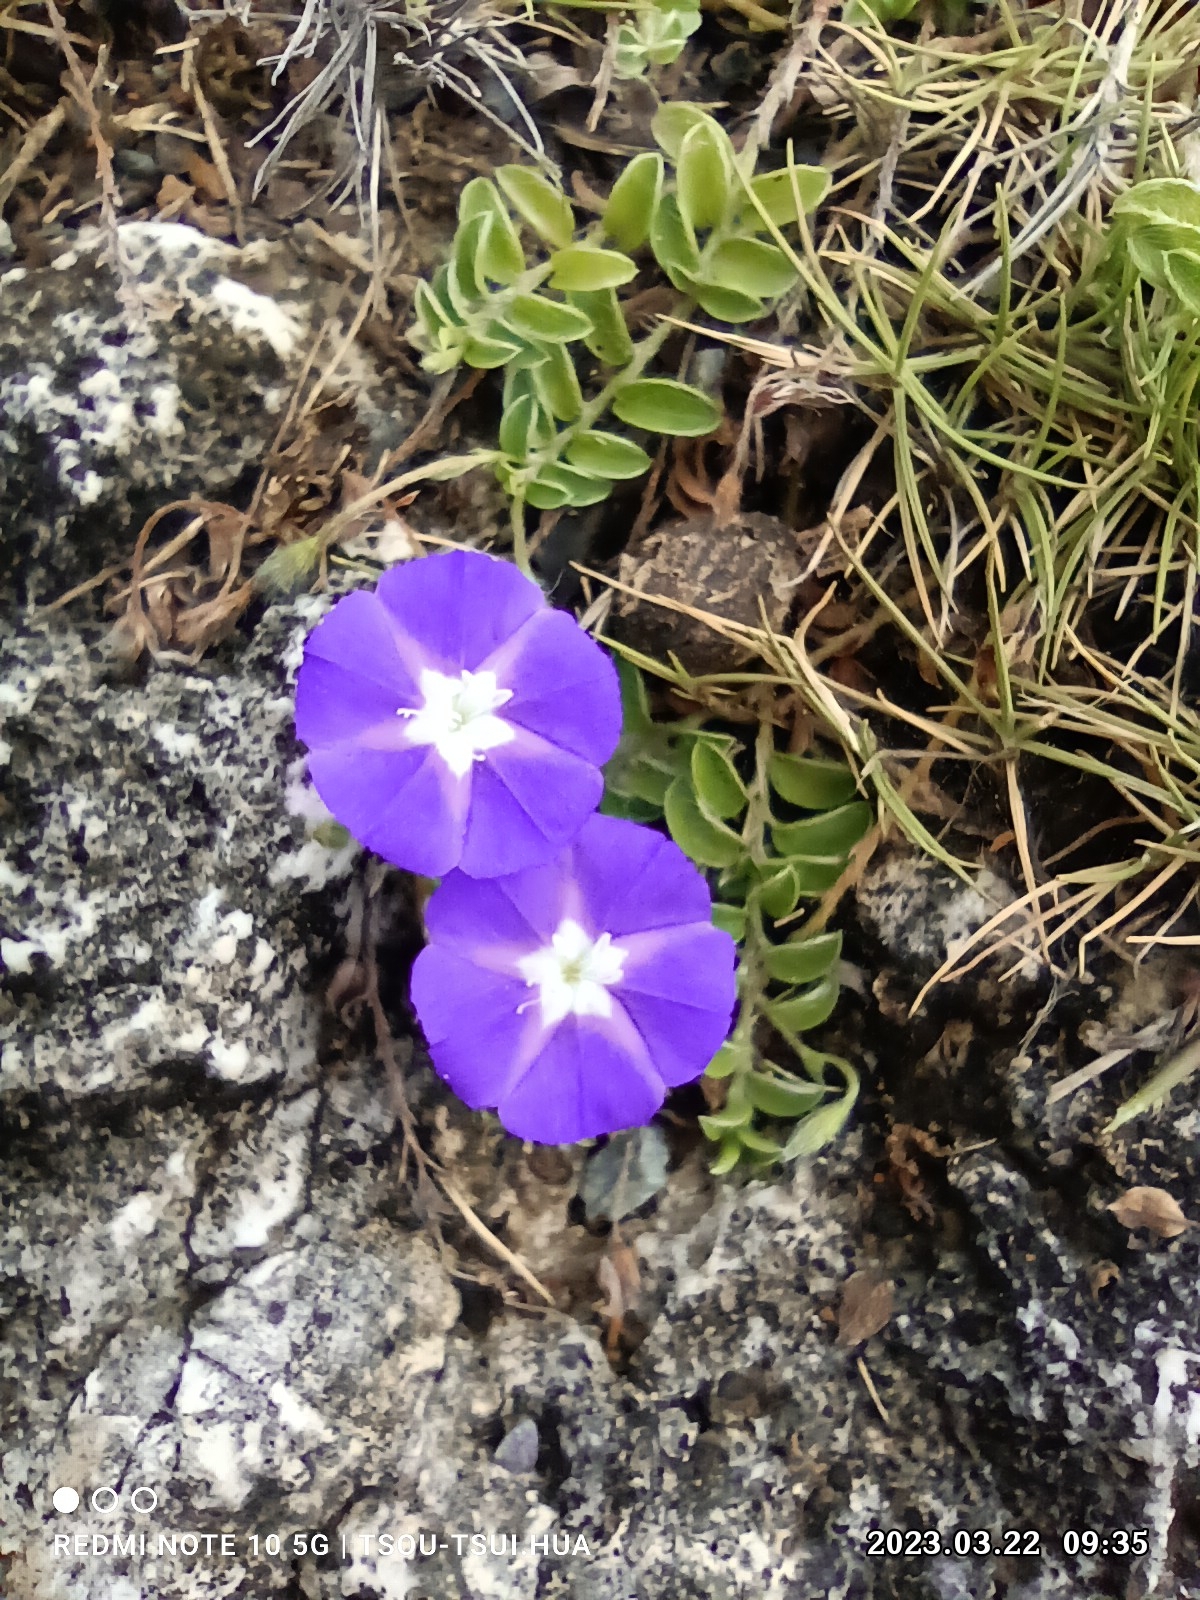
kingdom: Plantae
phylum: Tracheophyta
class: Magnoliopsida
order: Solanales
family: Convolvulaceae
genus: Evolvulus
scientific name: Evolvulus alsinoides
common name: Slender dwarf morning-glory
